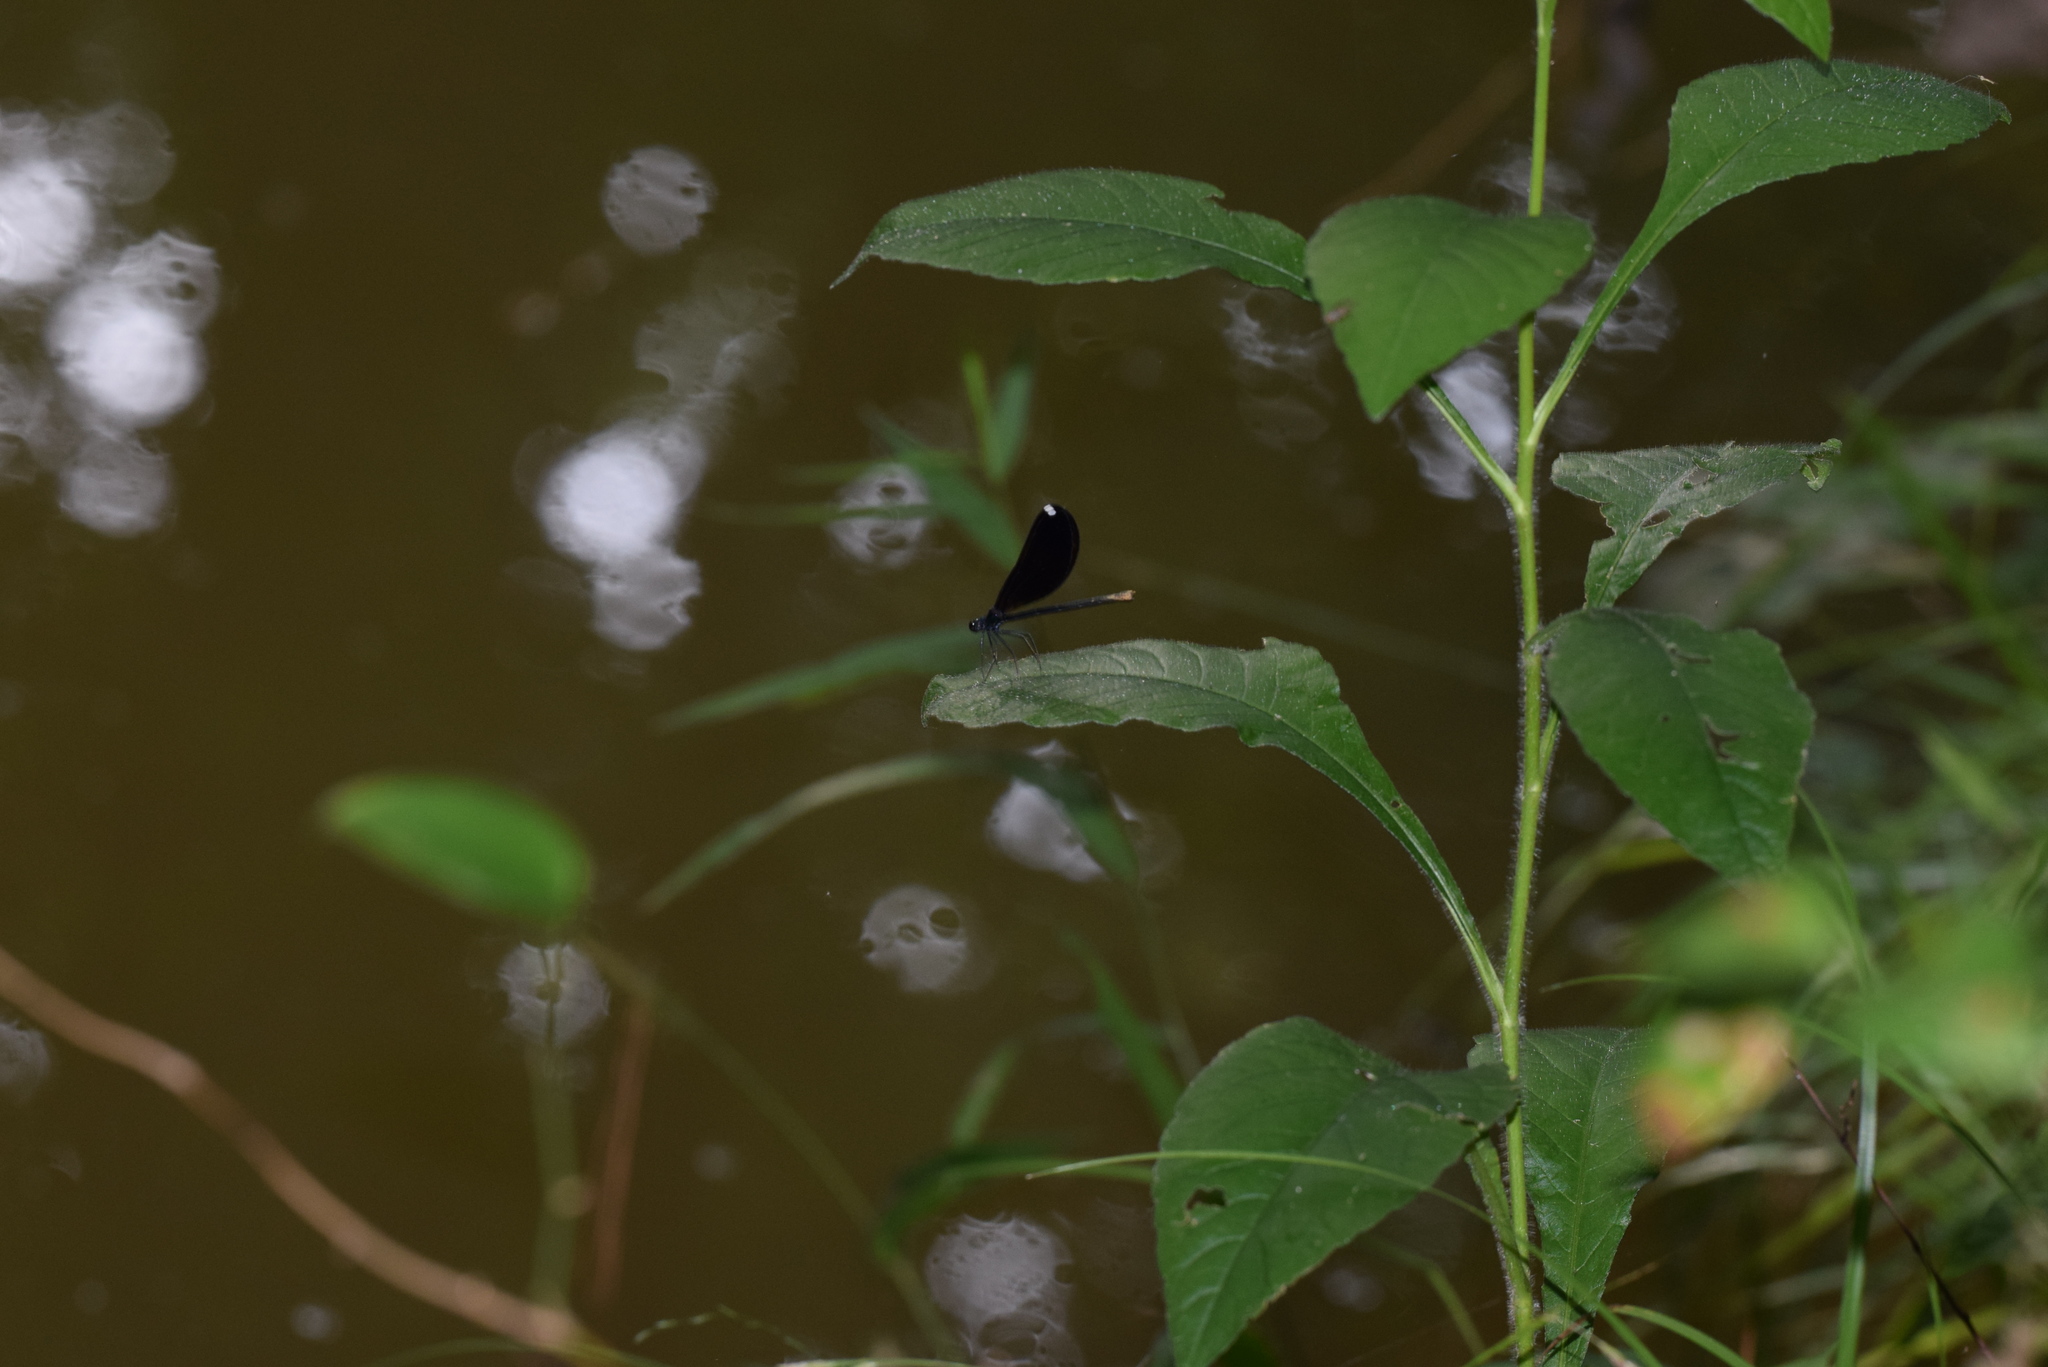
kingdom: Animalia
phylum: Arthropoda
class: Insecta
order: Odonata
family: Calopterygidae
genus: Calopteryx
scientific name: Calopteryx maculata
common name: Ebony jewelwing
